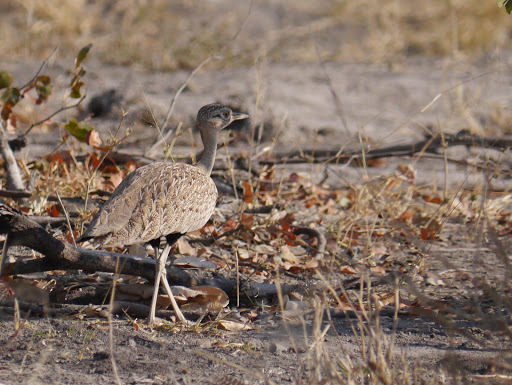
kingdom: Animalia
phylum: Chordata
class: Aves
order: Otidiformes
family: Otididae
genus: Lophotis
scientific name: Lophotis ruficrista
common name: Red-crested korhaan
